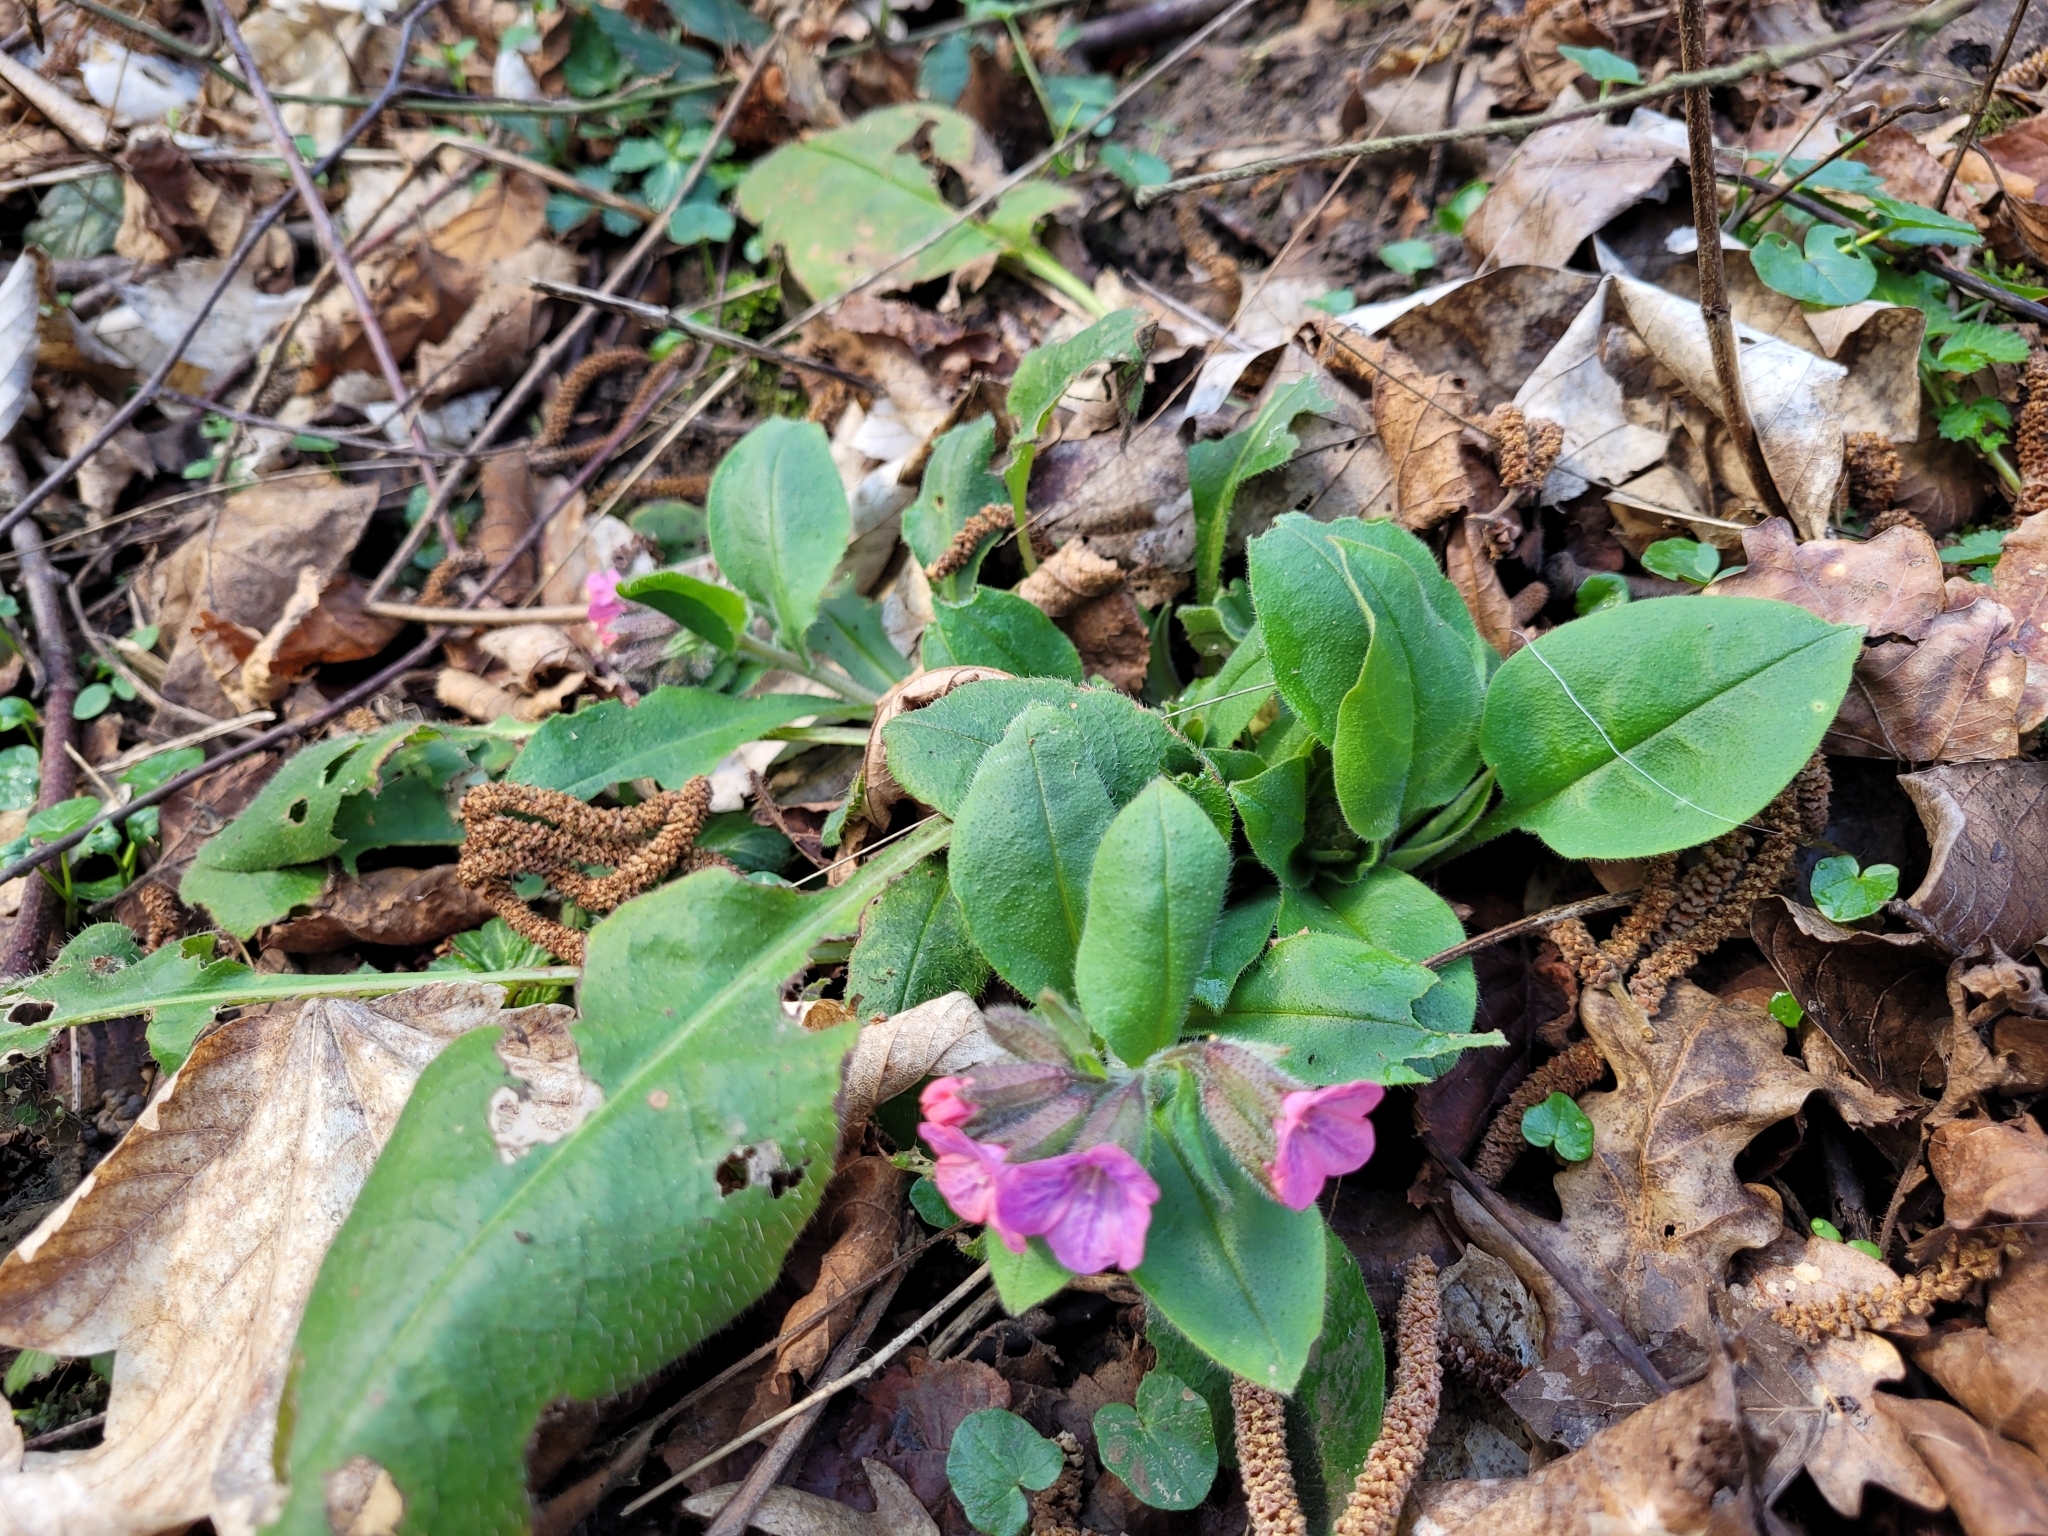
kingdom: Plantae
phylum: Tracheophyta
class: Magnoliopsida
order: Boraginales
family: Boraginaceae
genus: Pulmonaria
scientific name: Pulmonaria obscura
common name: Suffolk lungwort
